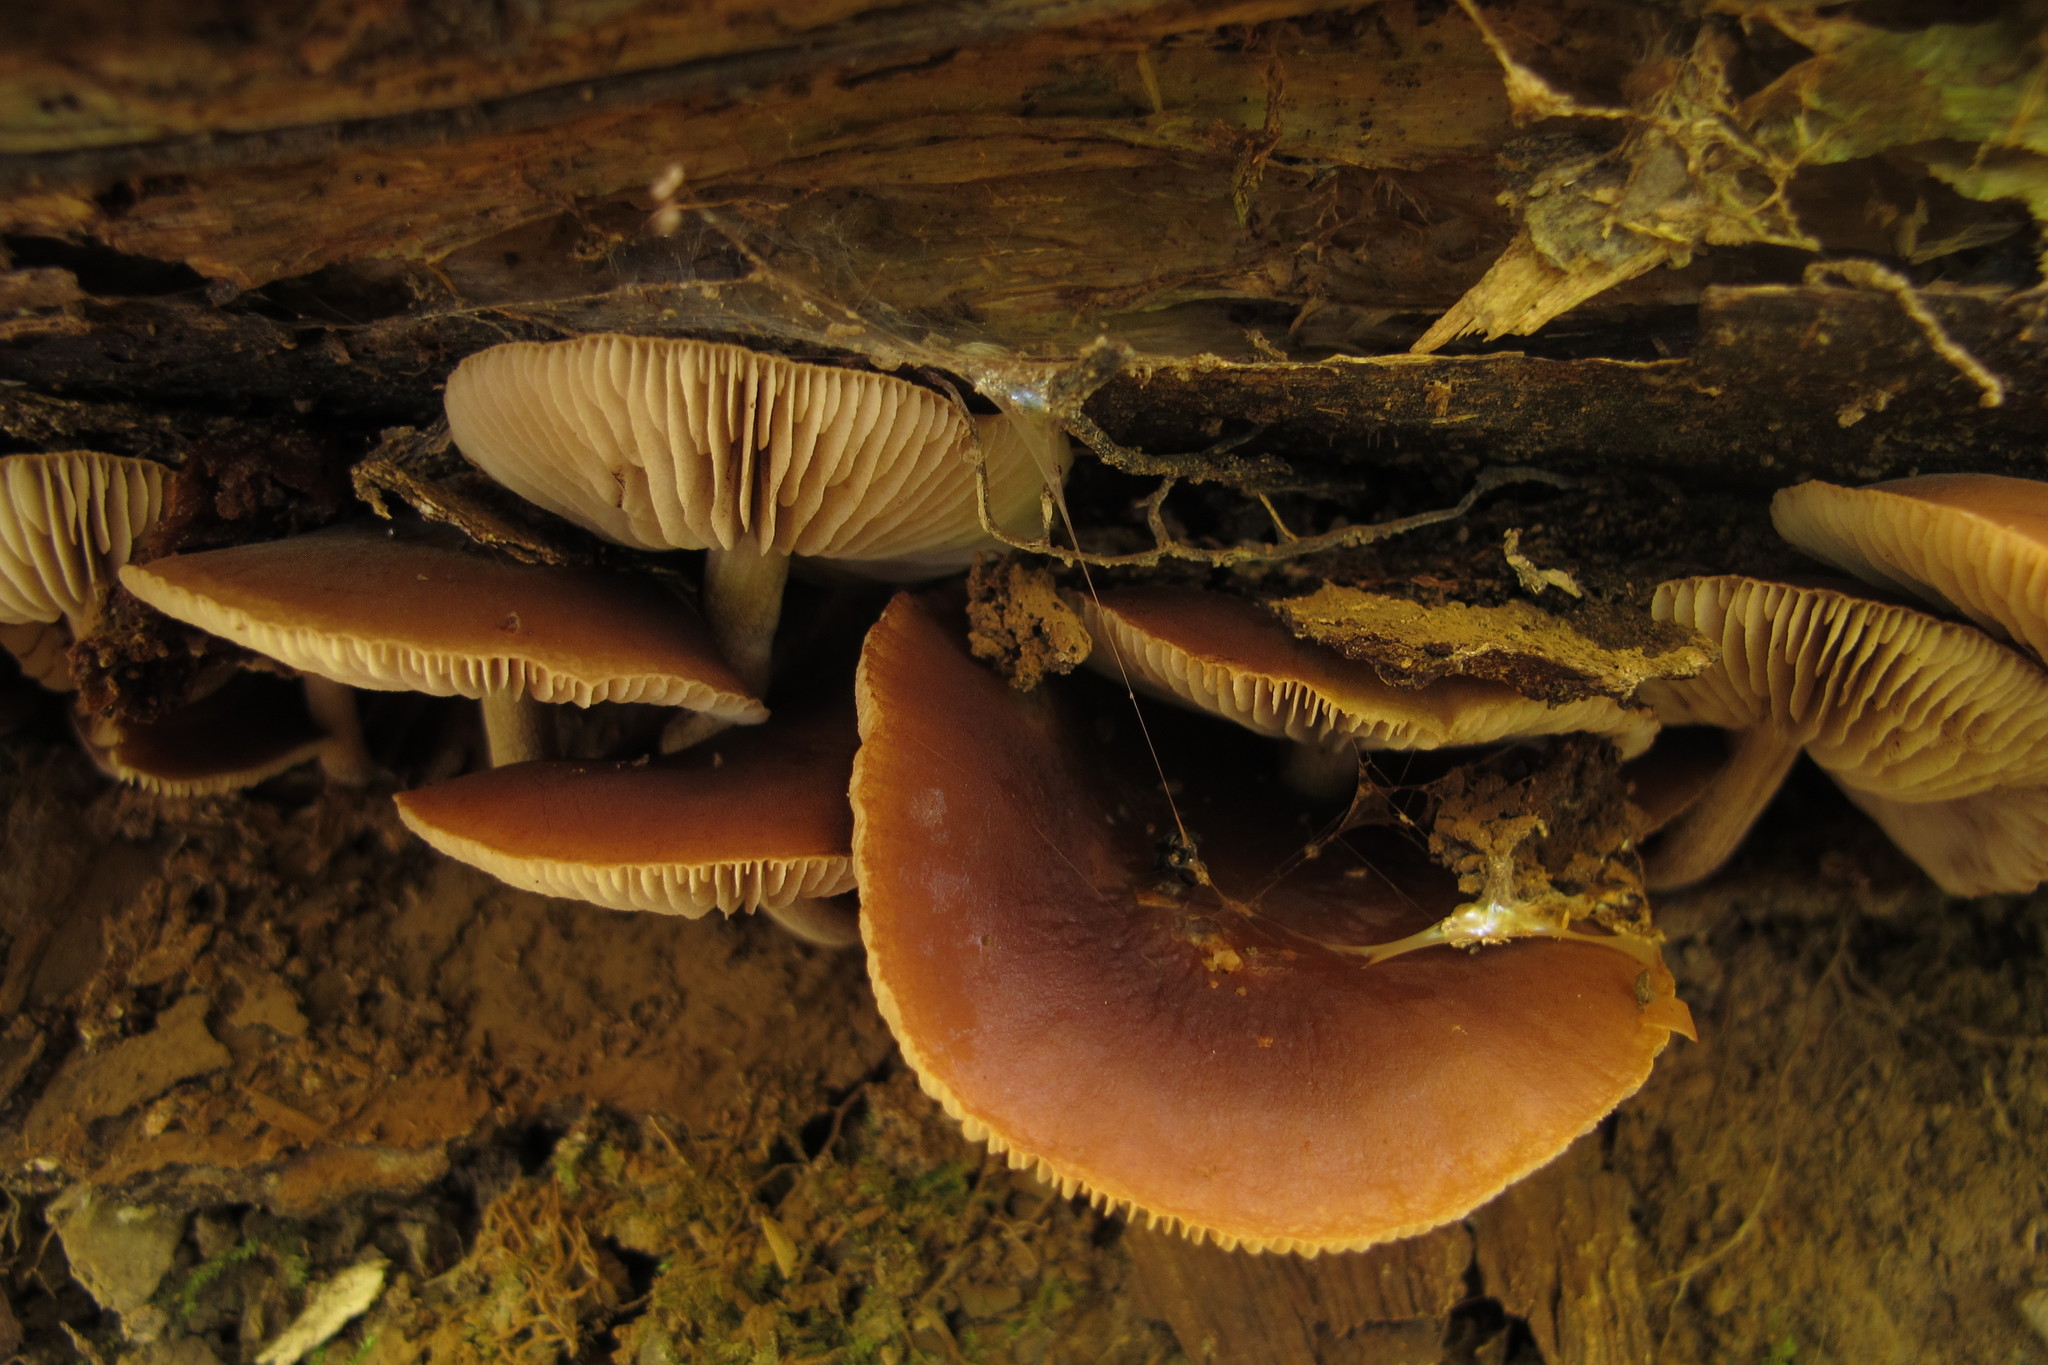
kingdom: Fungi
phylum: Basidiomycota
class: Agaricomycetes
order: Agaricales
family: Strophariaceae
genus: Agrocybe
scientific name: Agrocybe firma
